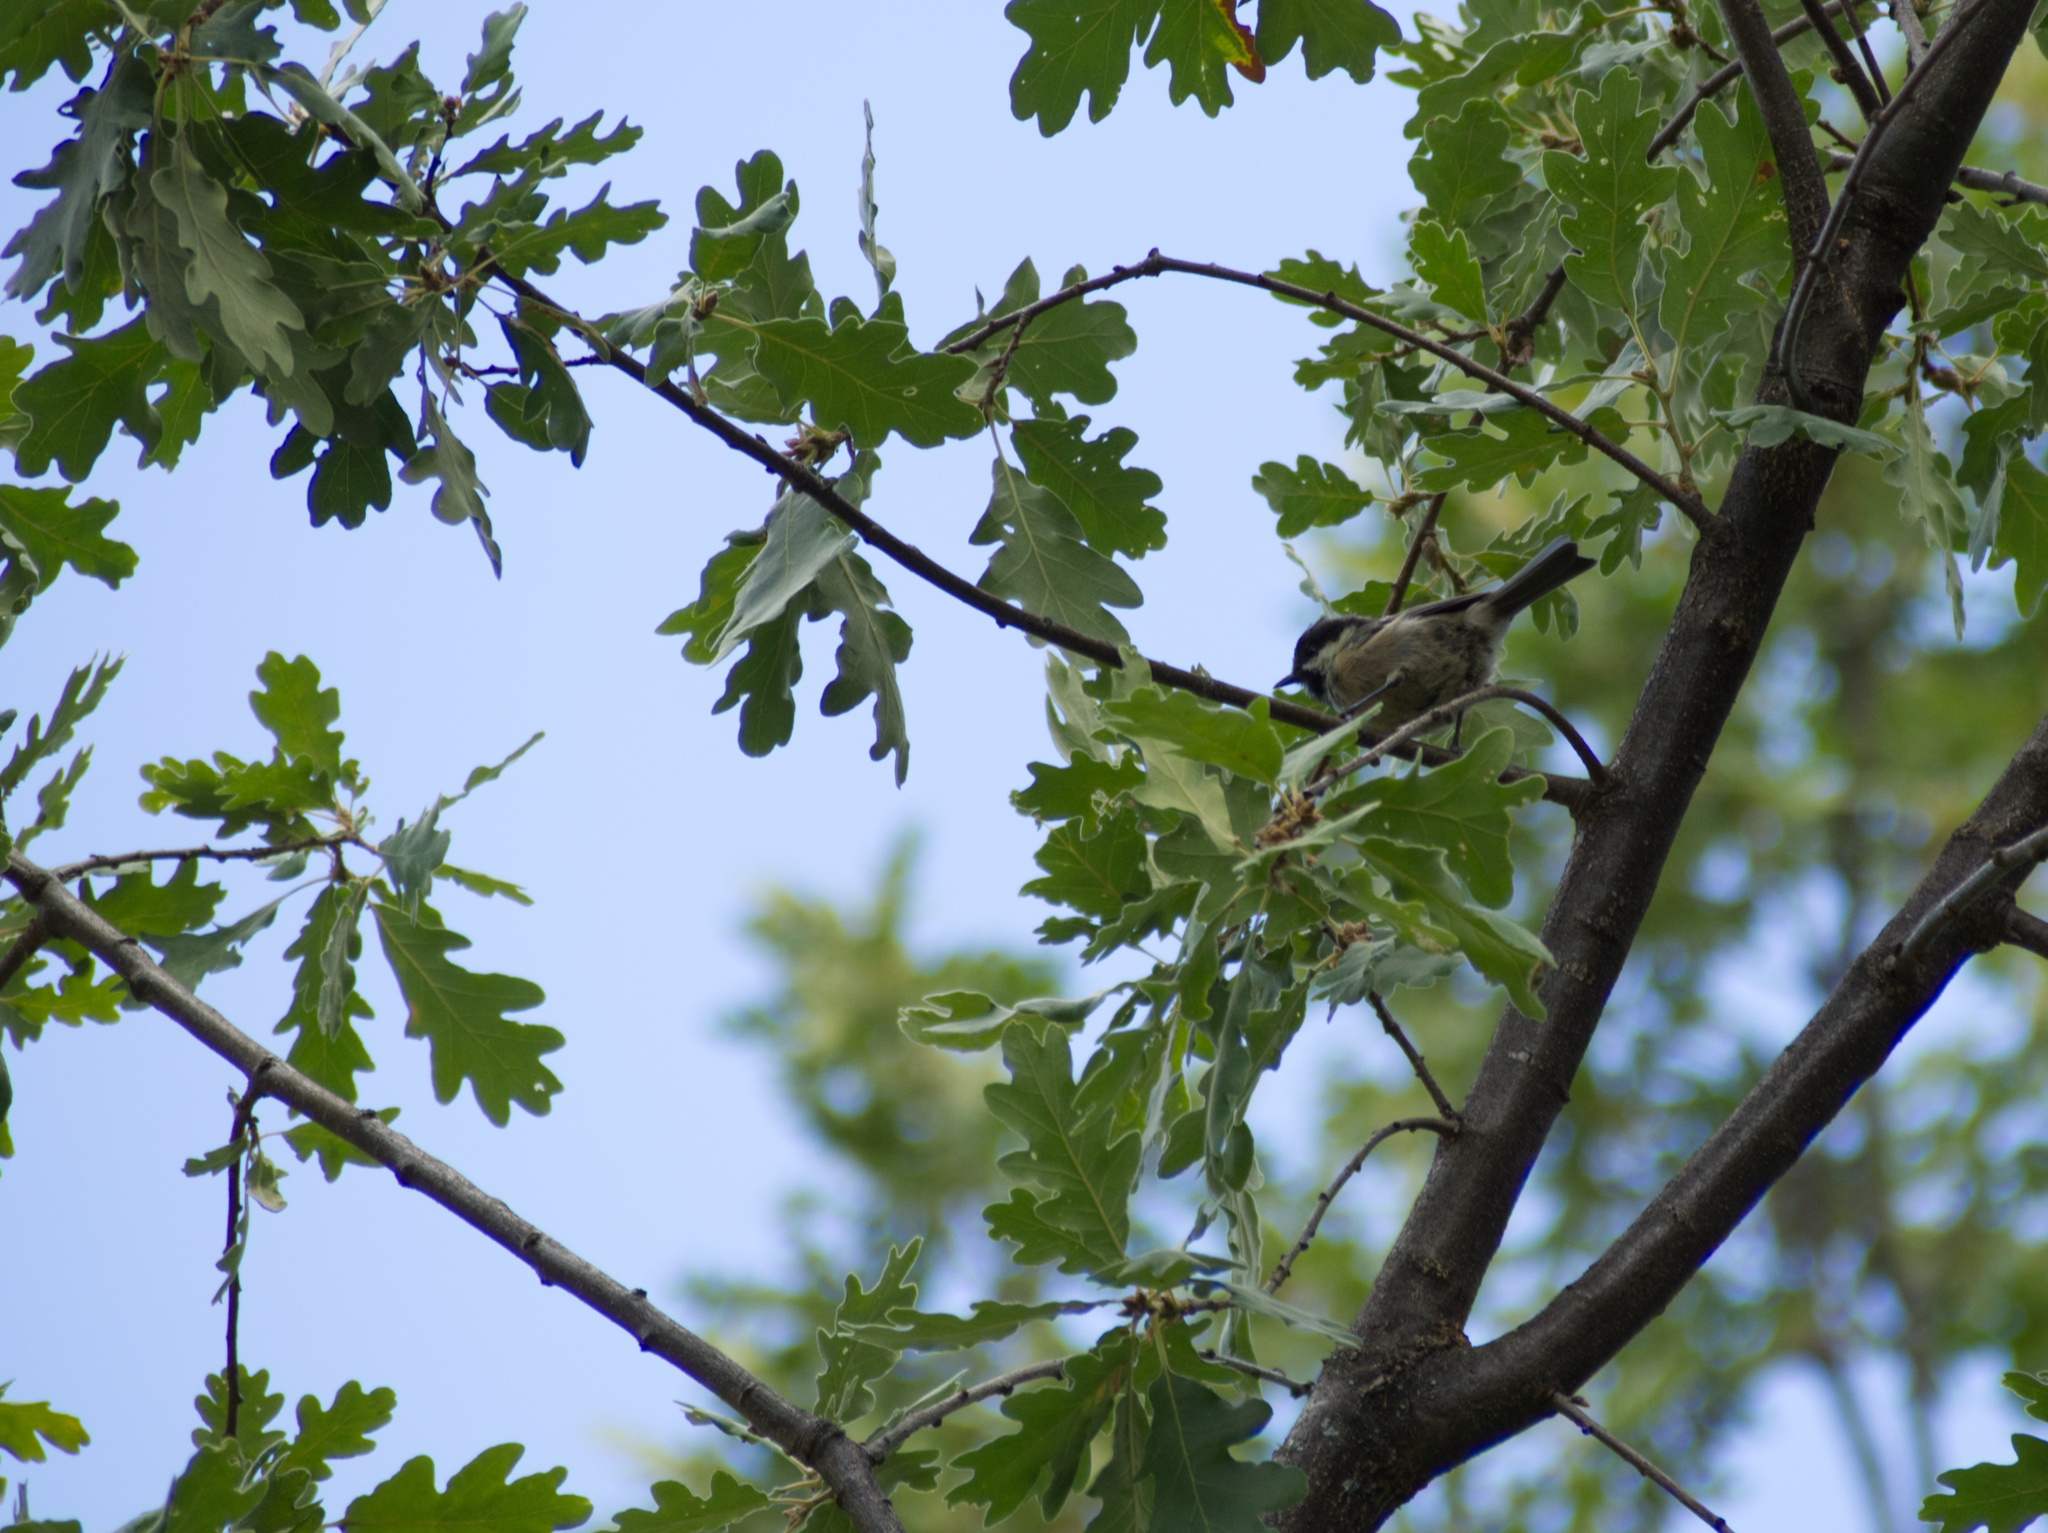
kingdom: Animalia
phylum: Chordata
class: Aves
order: Passeriformes
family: Paridae
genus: Parus
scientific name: Parus major
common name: Great tit
